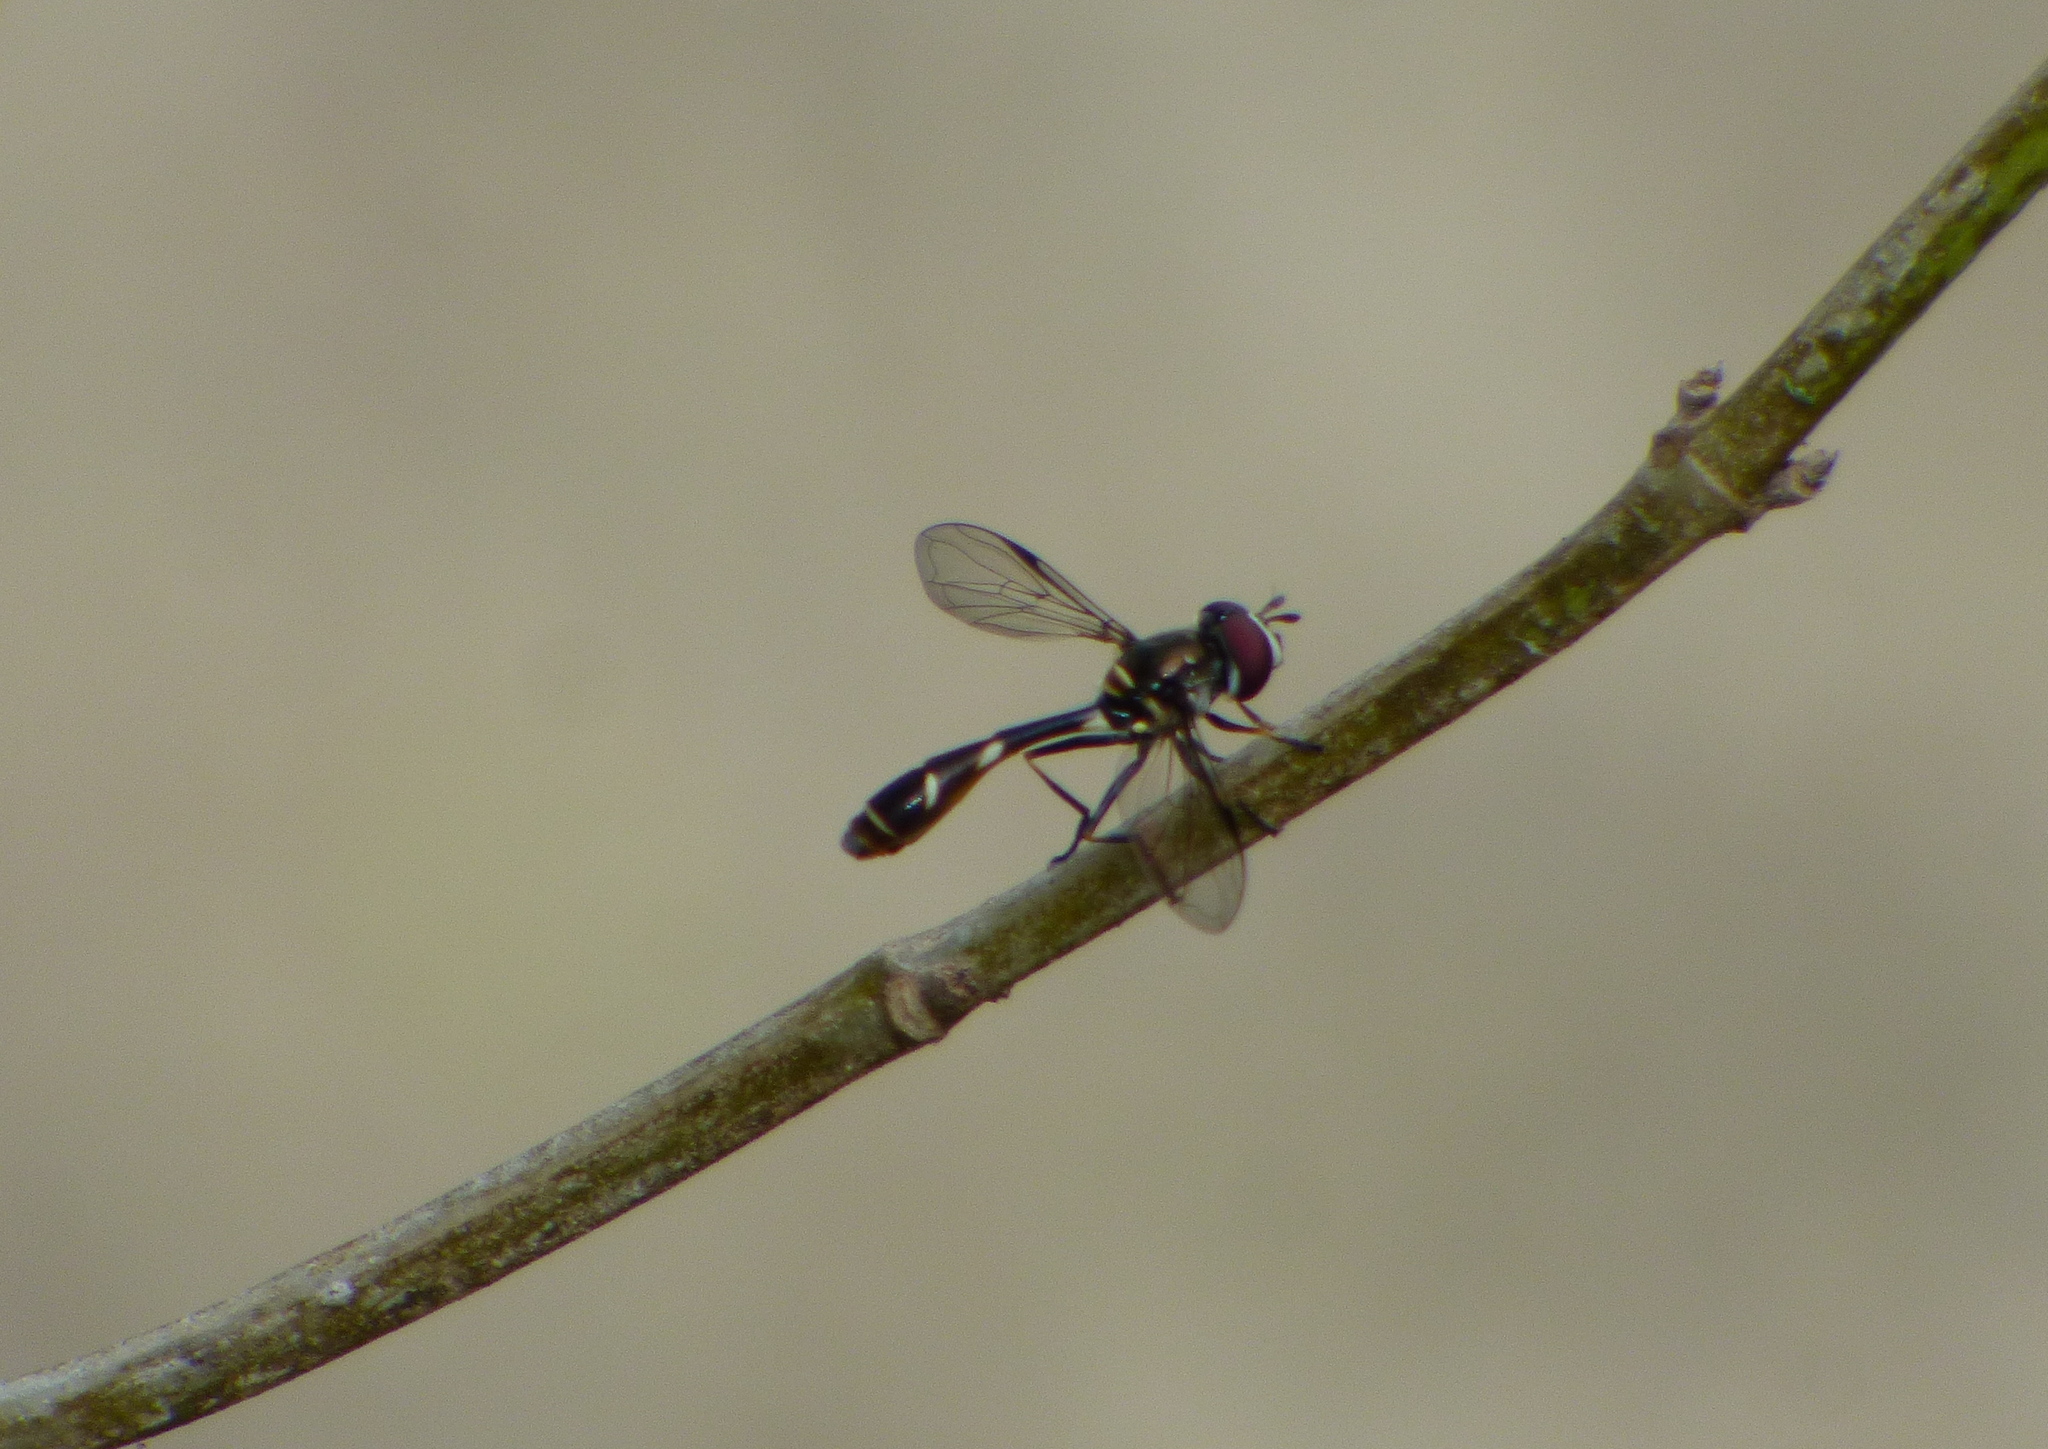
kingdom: Animalia
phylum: Arthropoda
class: Insecta
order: Diptera
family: Syrphidae
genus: Dioprosopa
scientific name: Dioprosopa clavatus
